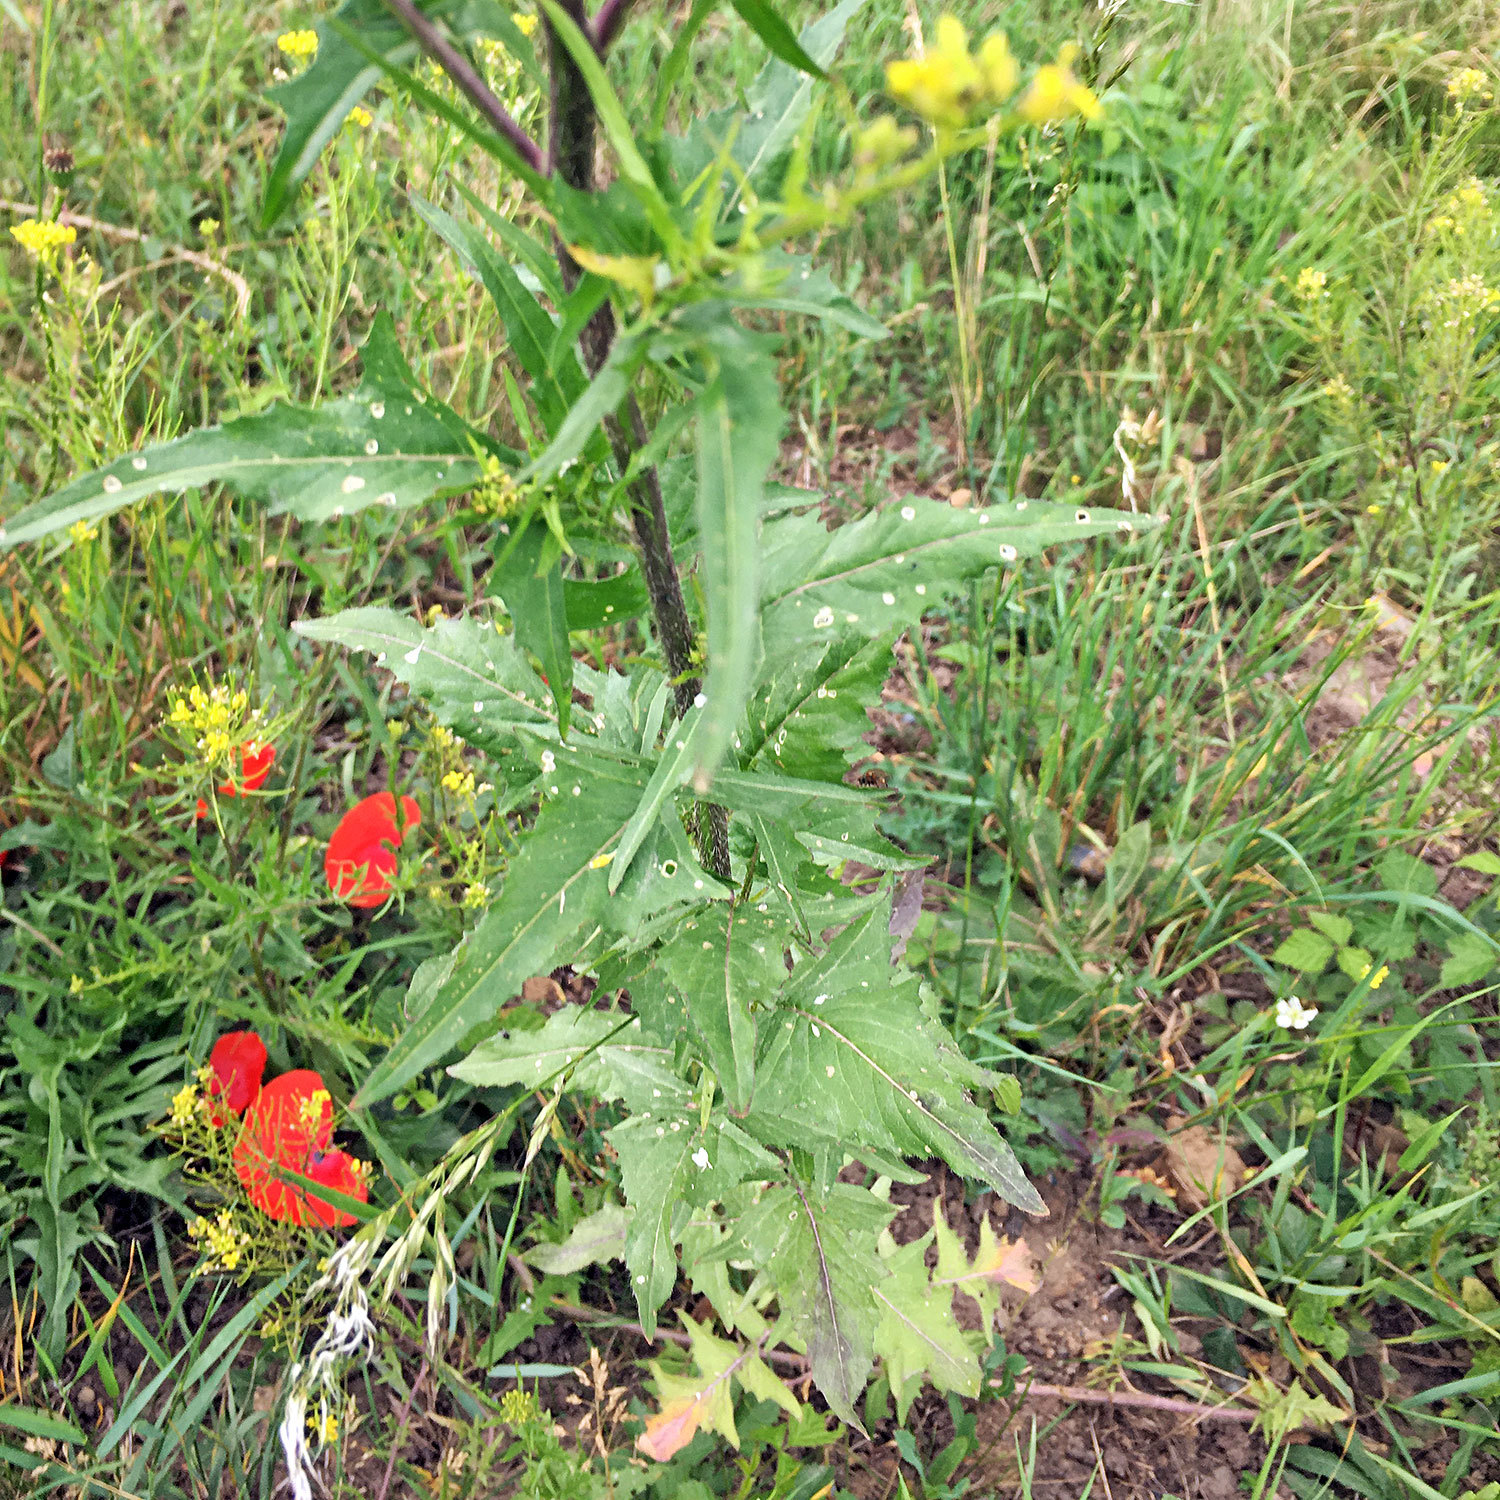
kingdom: Plantae
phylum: Tracheophyta
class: Magnoliopsida
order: Brassicales
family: Brassicaceae
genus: Sisymbrium
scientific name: Sisymbrium loeselii
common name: False london-rocket
